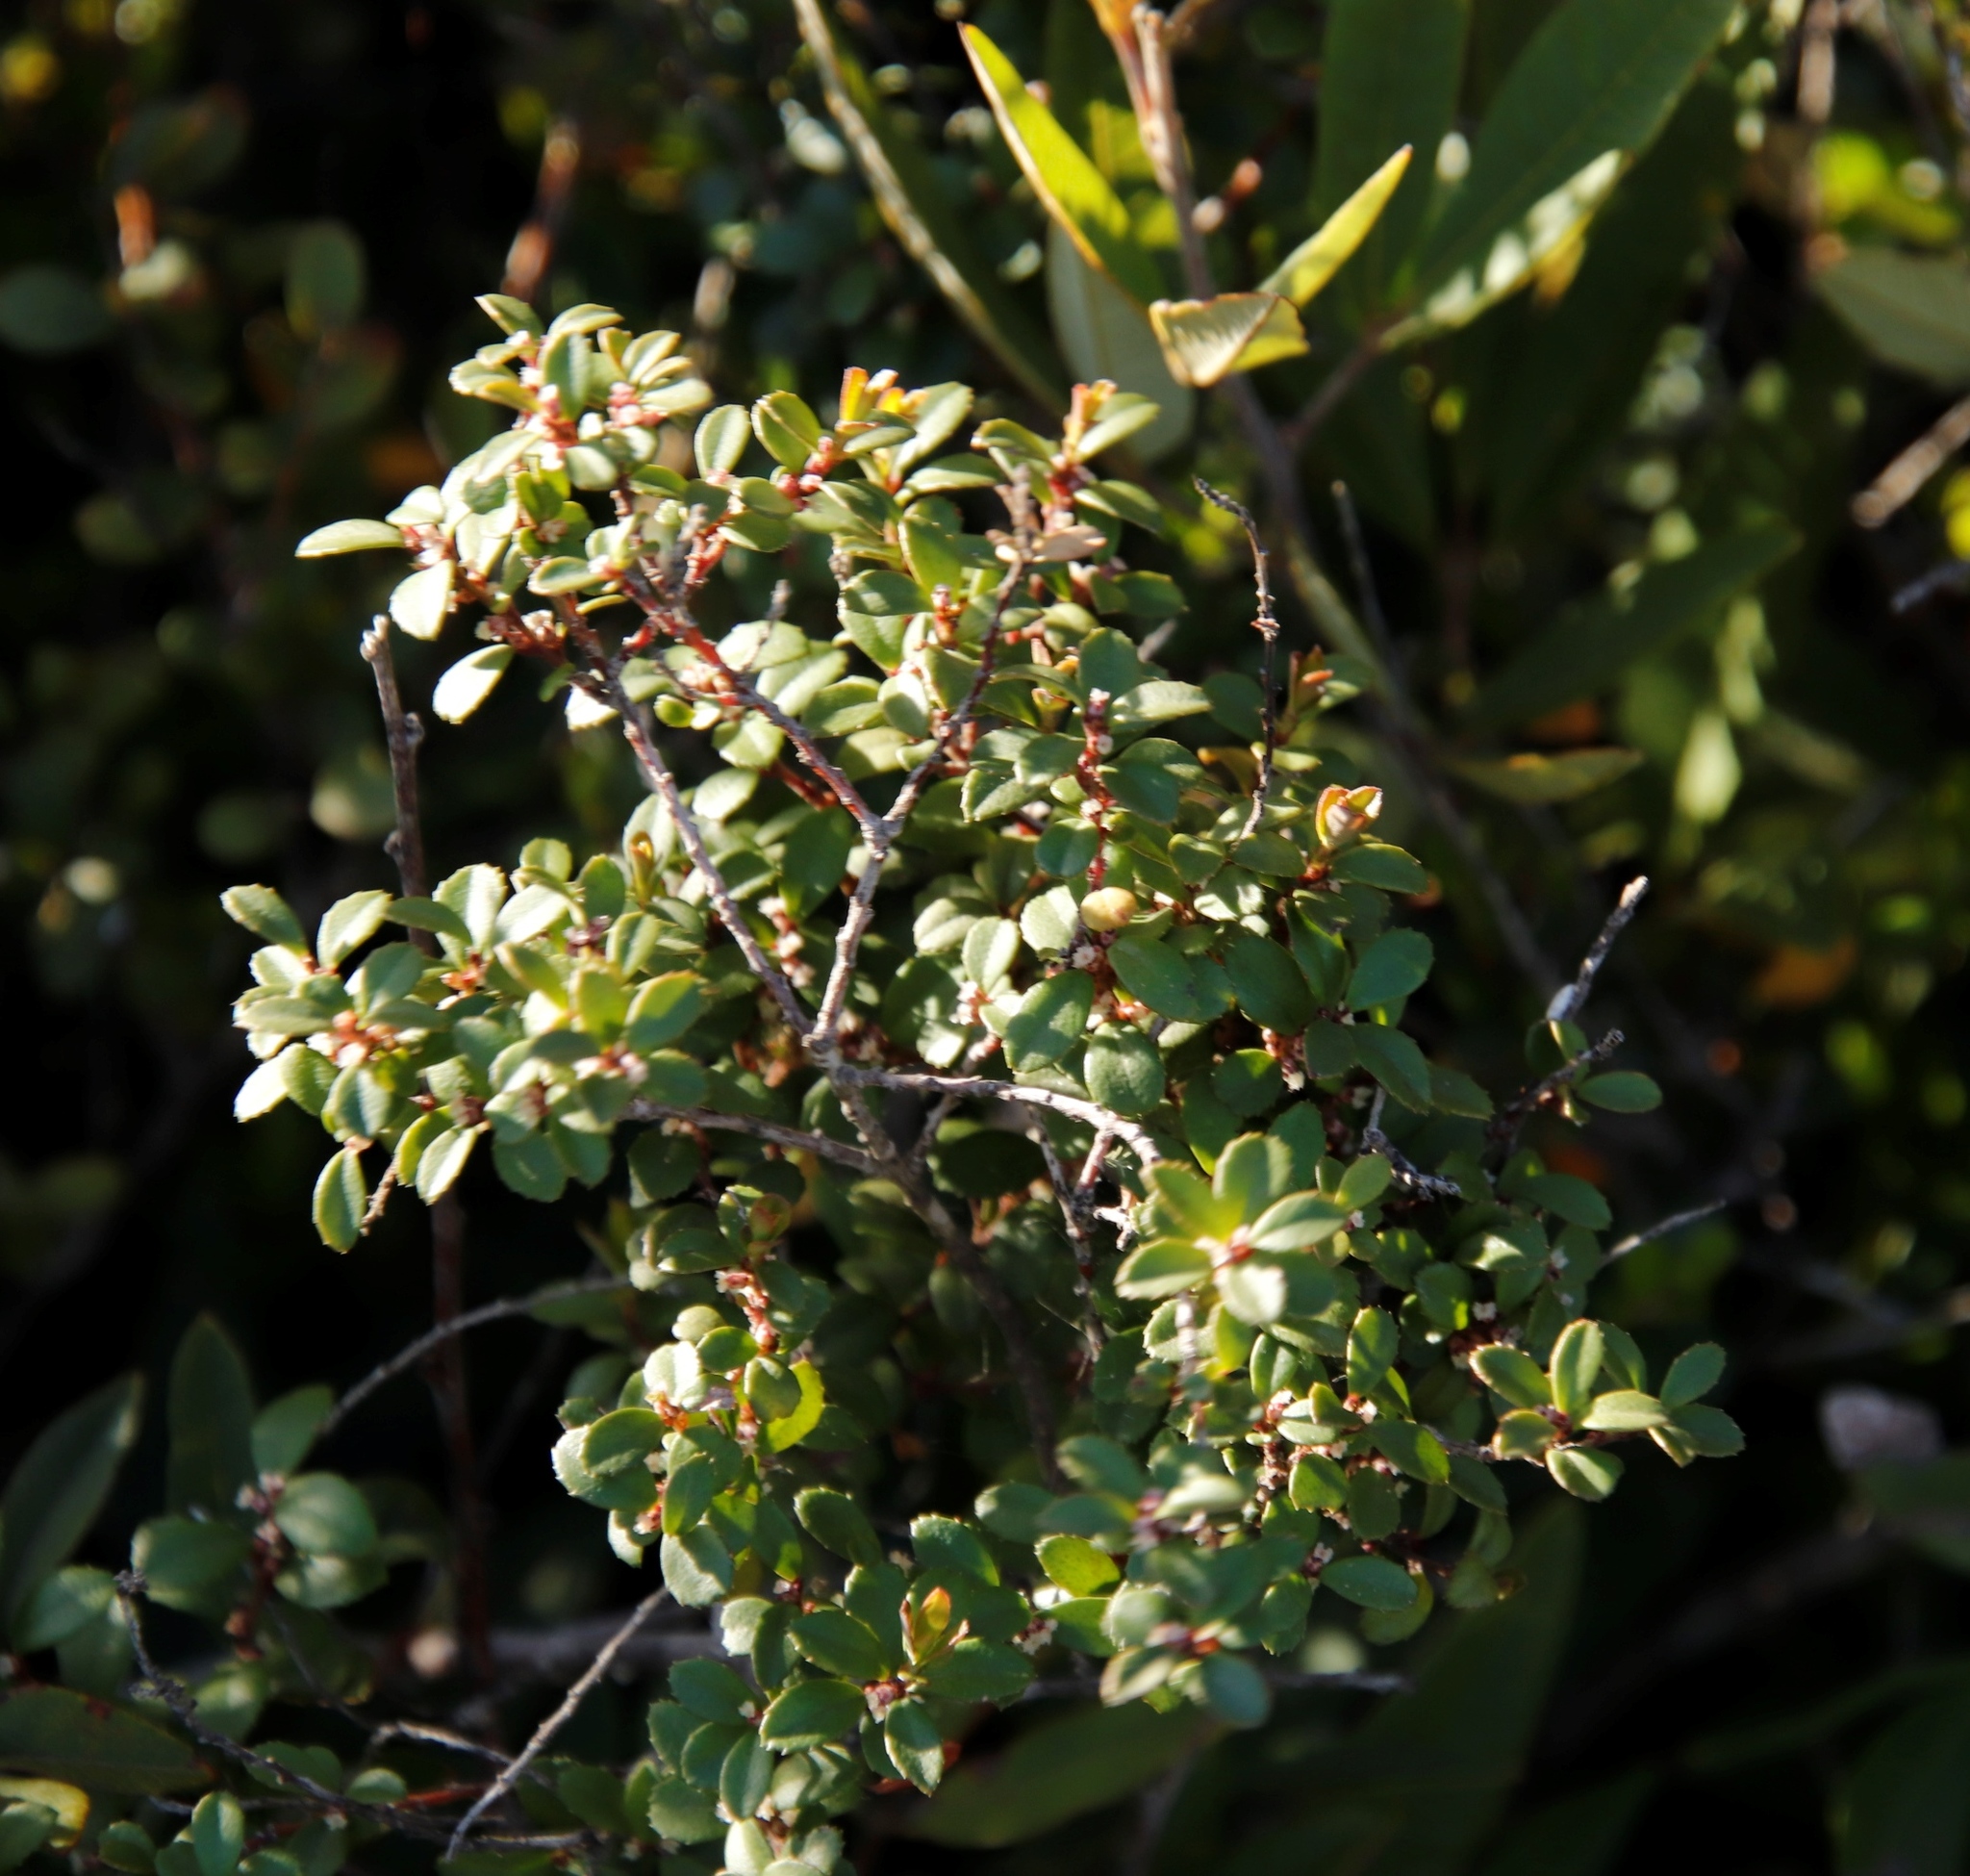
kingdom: Plantae
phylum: Tracheophyta
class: Magnoliopsida
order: Ericales
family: Primulaceae
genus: Myrsine
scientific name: Myrsine africana
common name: African-boxwood
